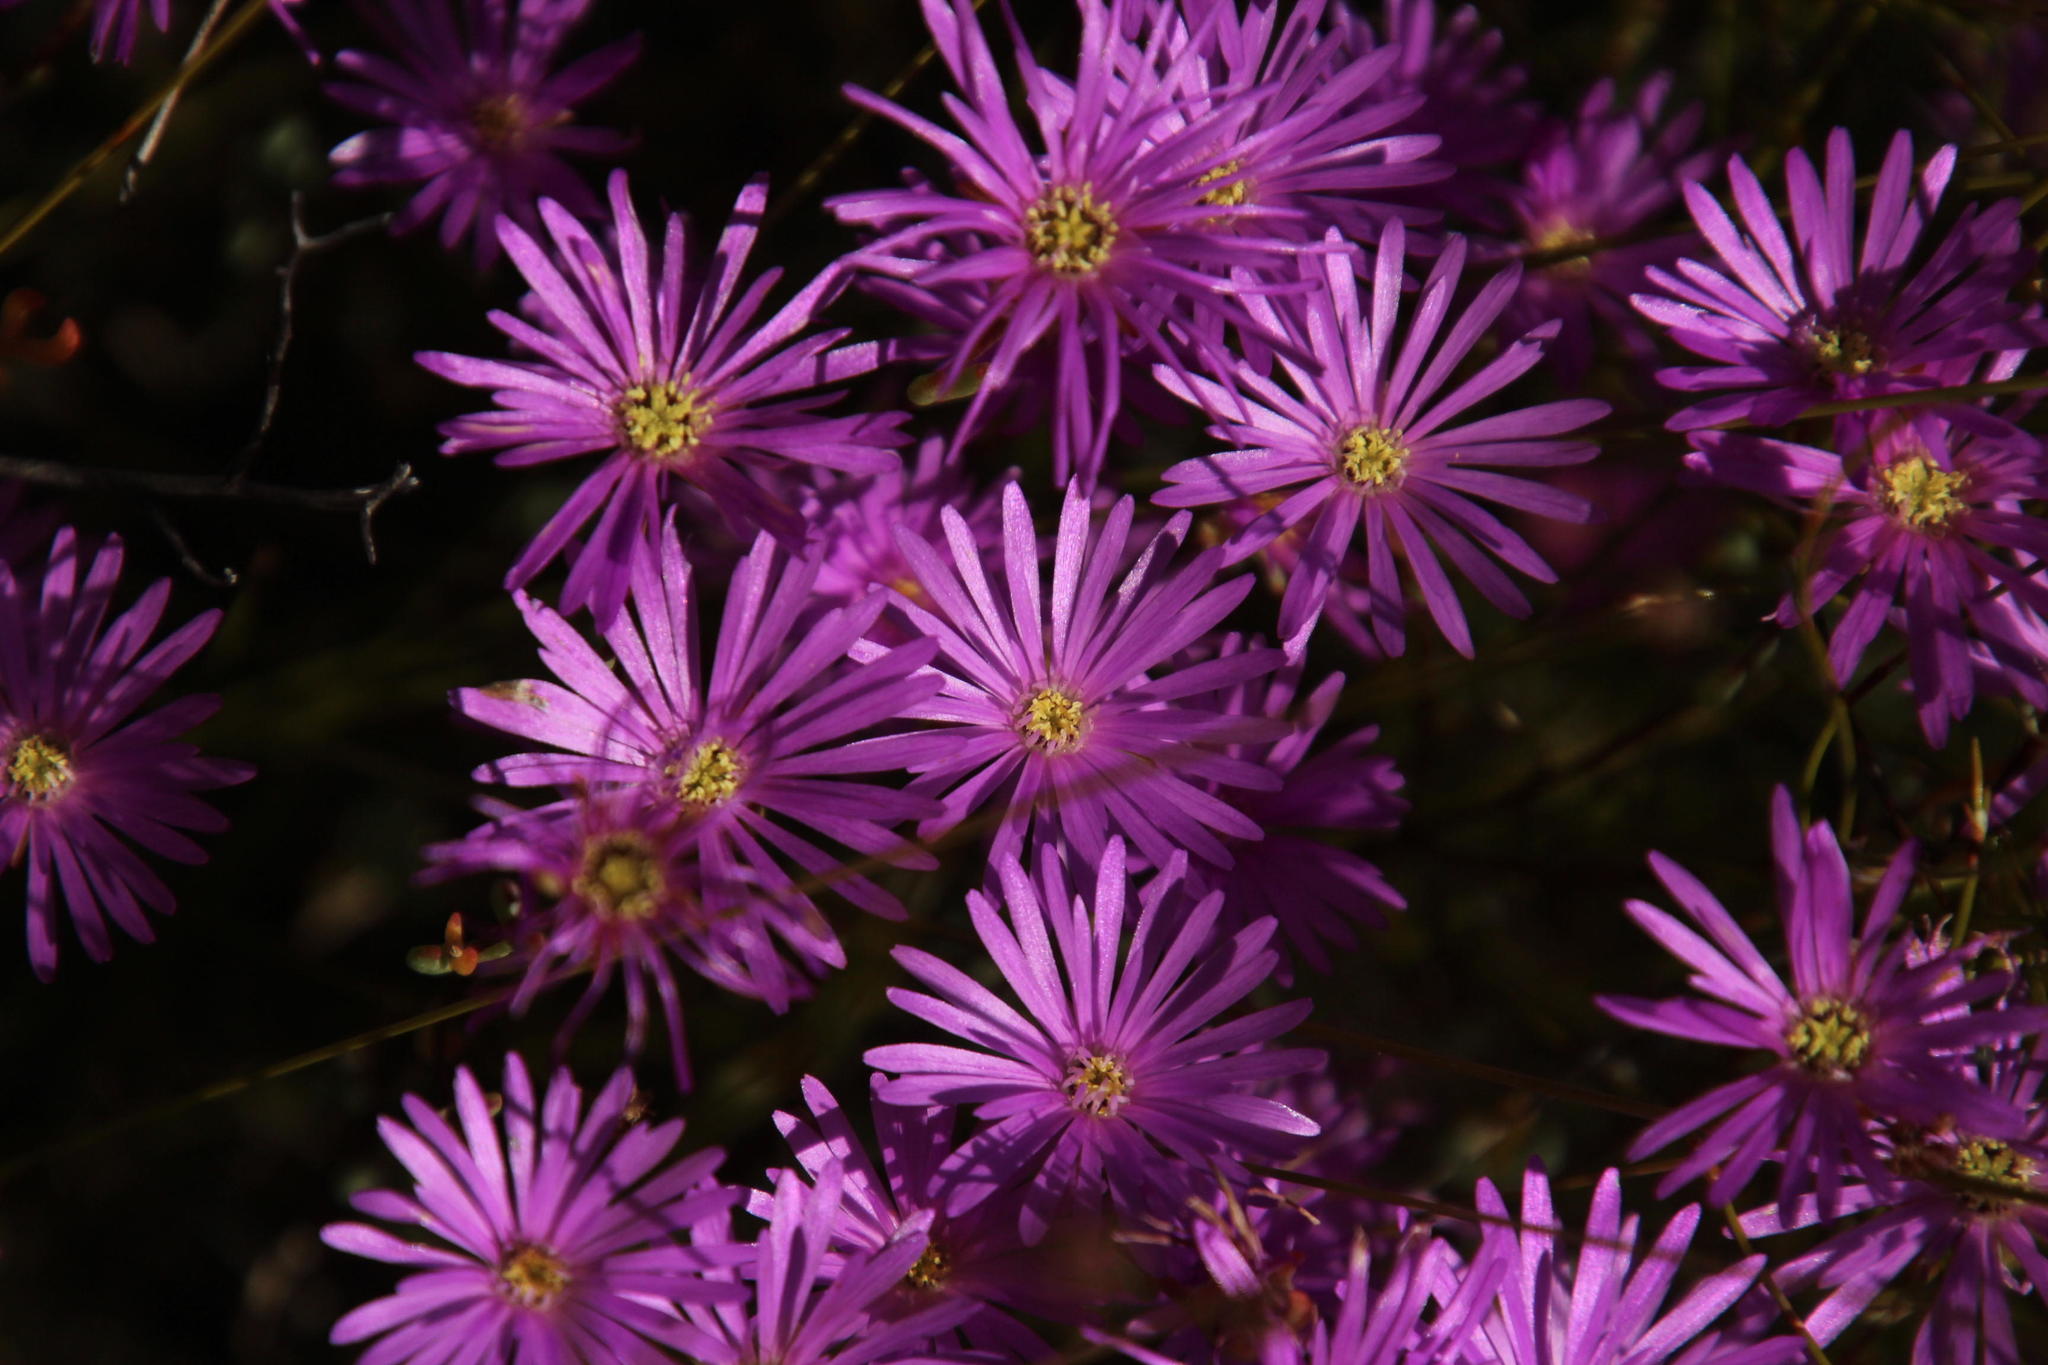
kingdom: Plantae
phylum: Tracheophyta
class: Magnoliopsida
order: Caryophyllales
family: Aizoaceae
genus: Lampranthus
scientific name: Lampranthus falcatus
